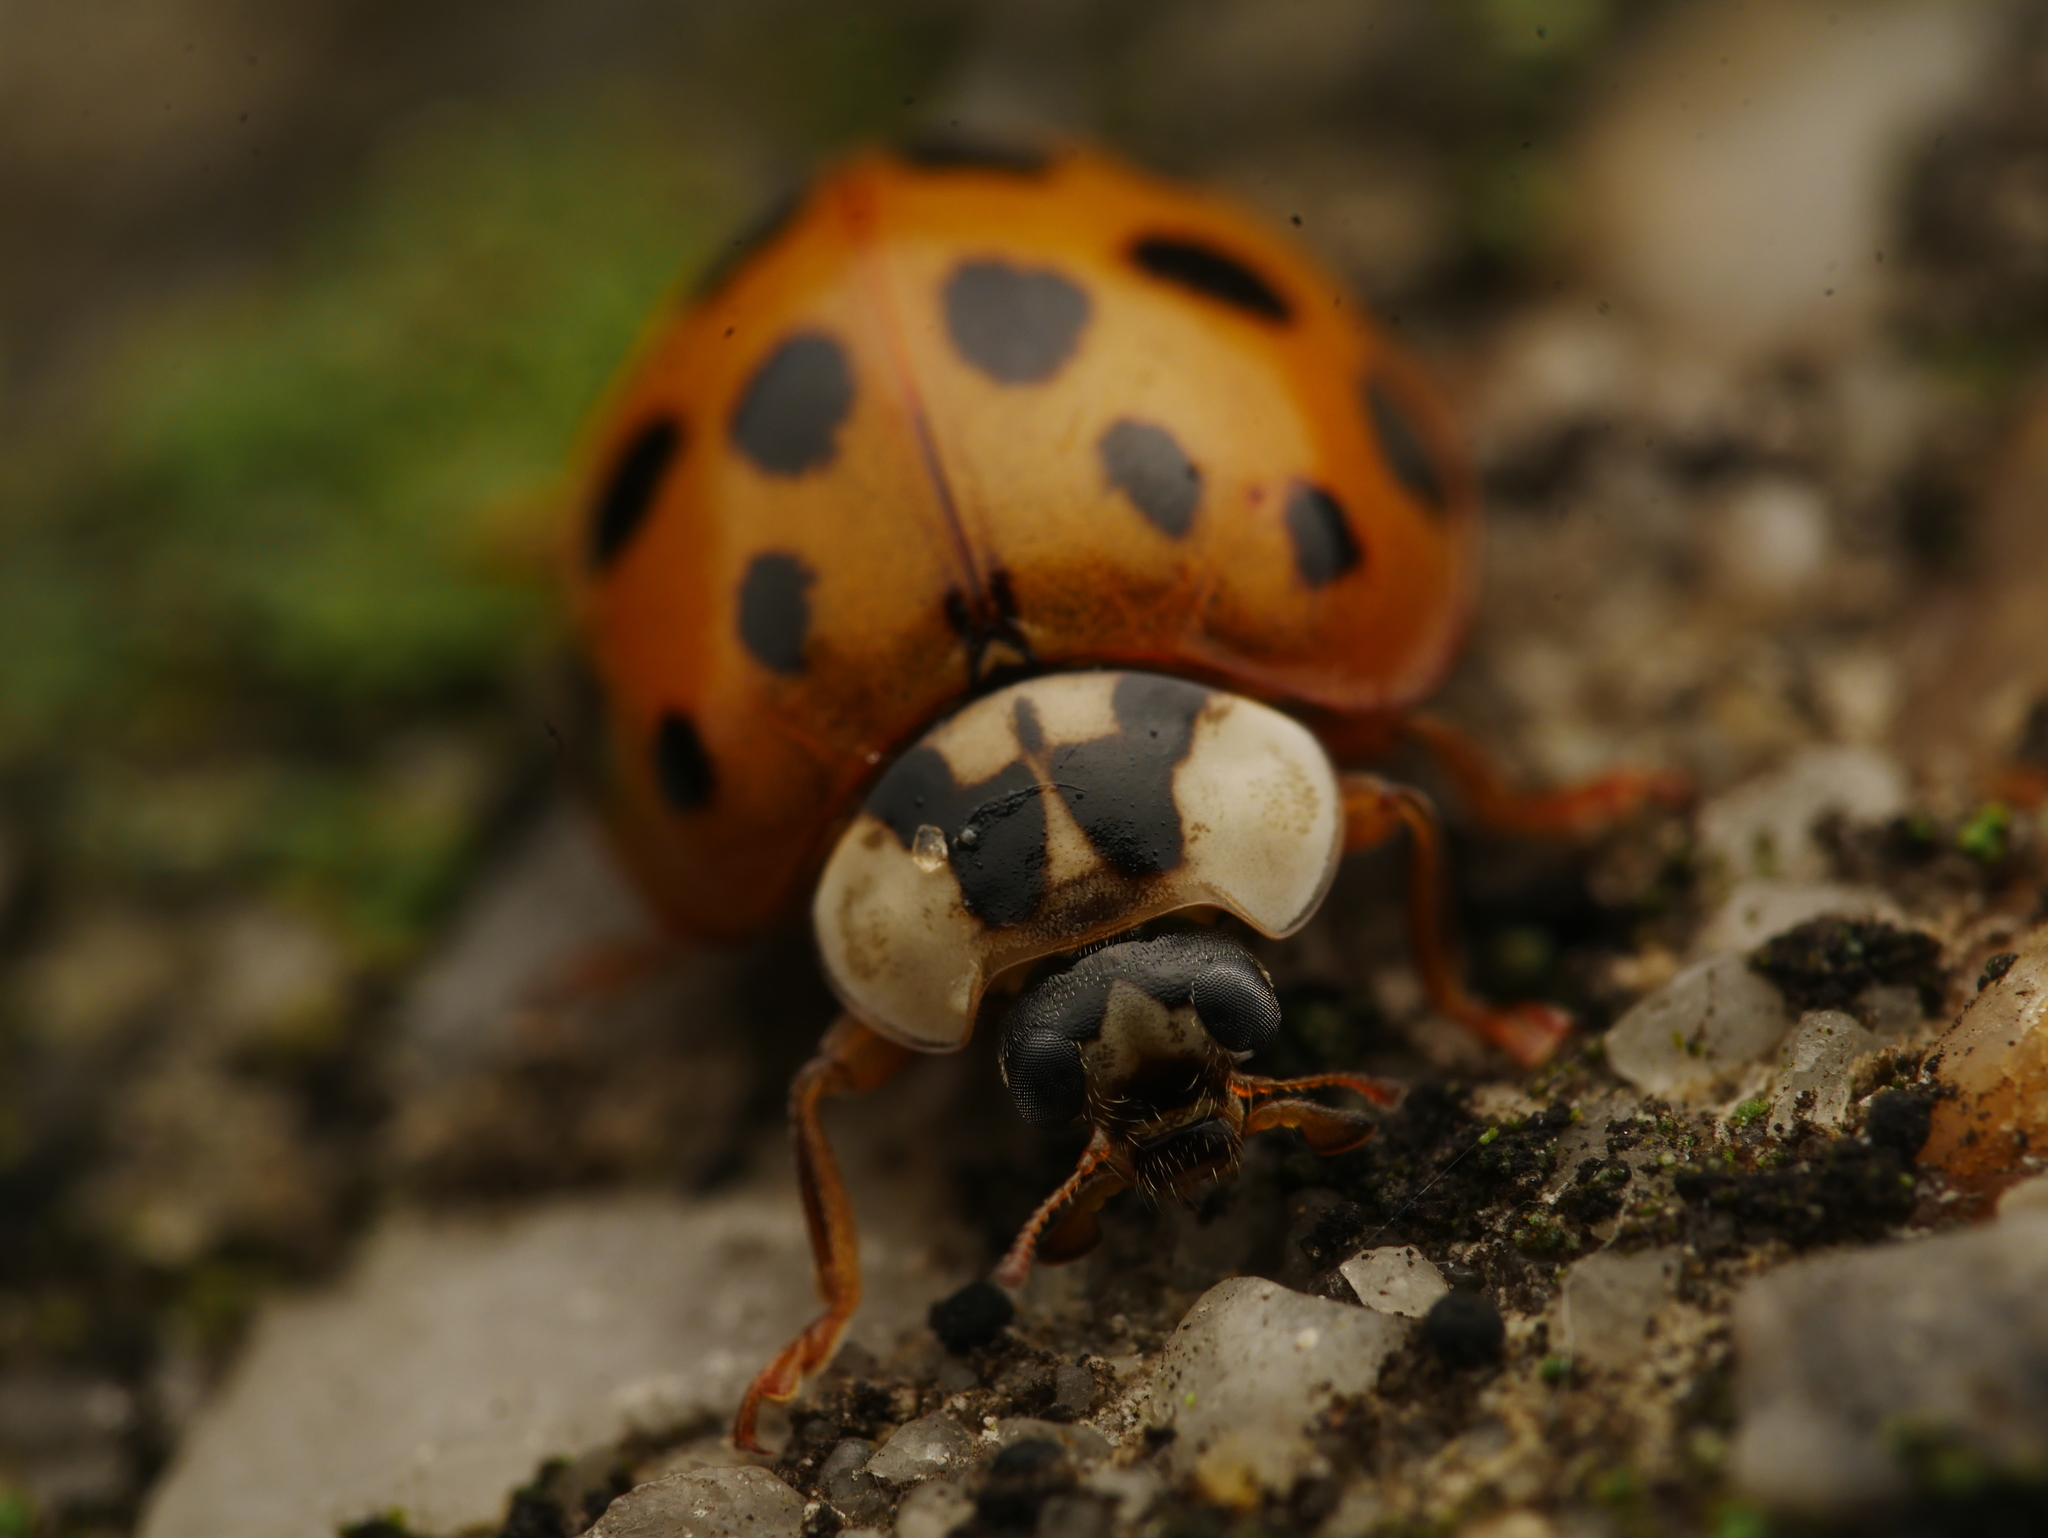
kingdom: Animalia
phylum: Arthropoda
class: Insecta
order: Coleoptera
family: Coccinellidae
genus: Harmonia
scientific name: Harmonia axyridis
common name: Harlequin ladybird
